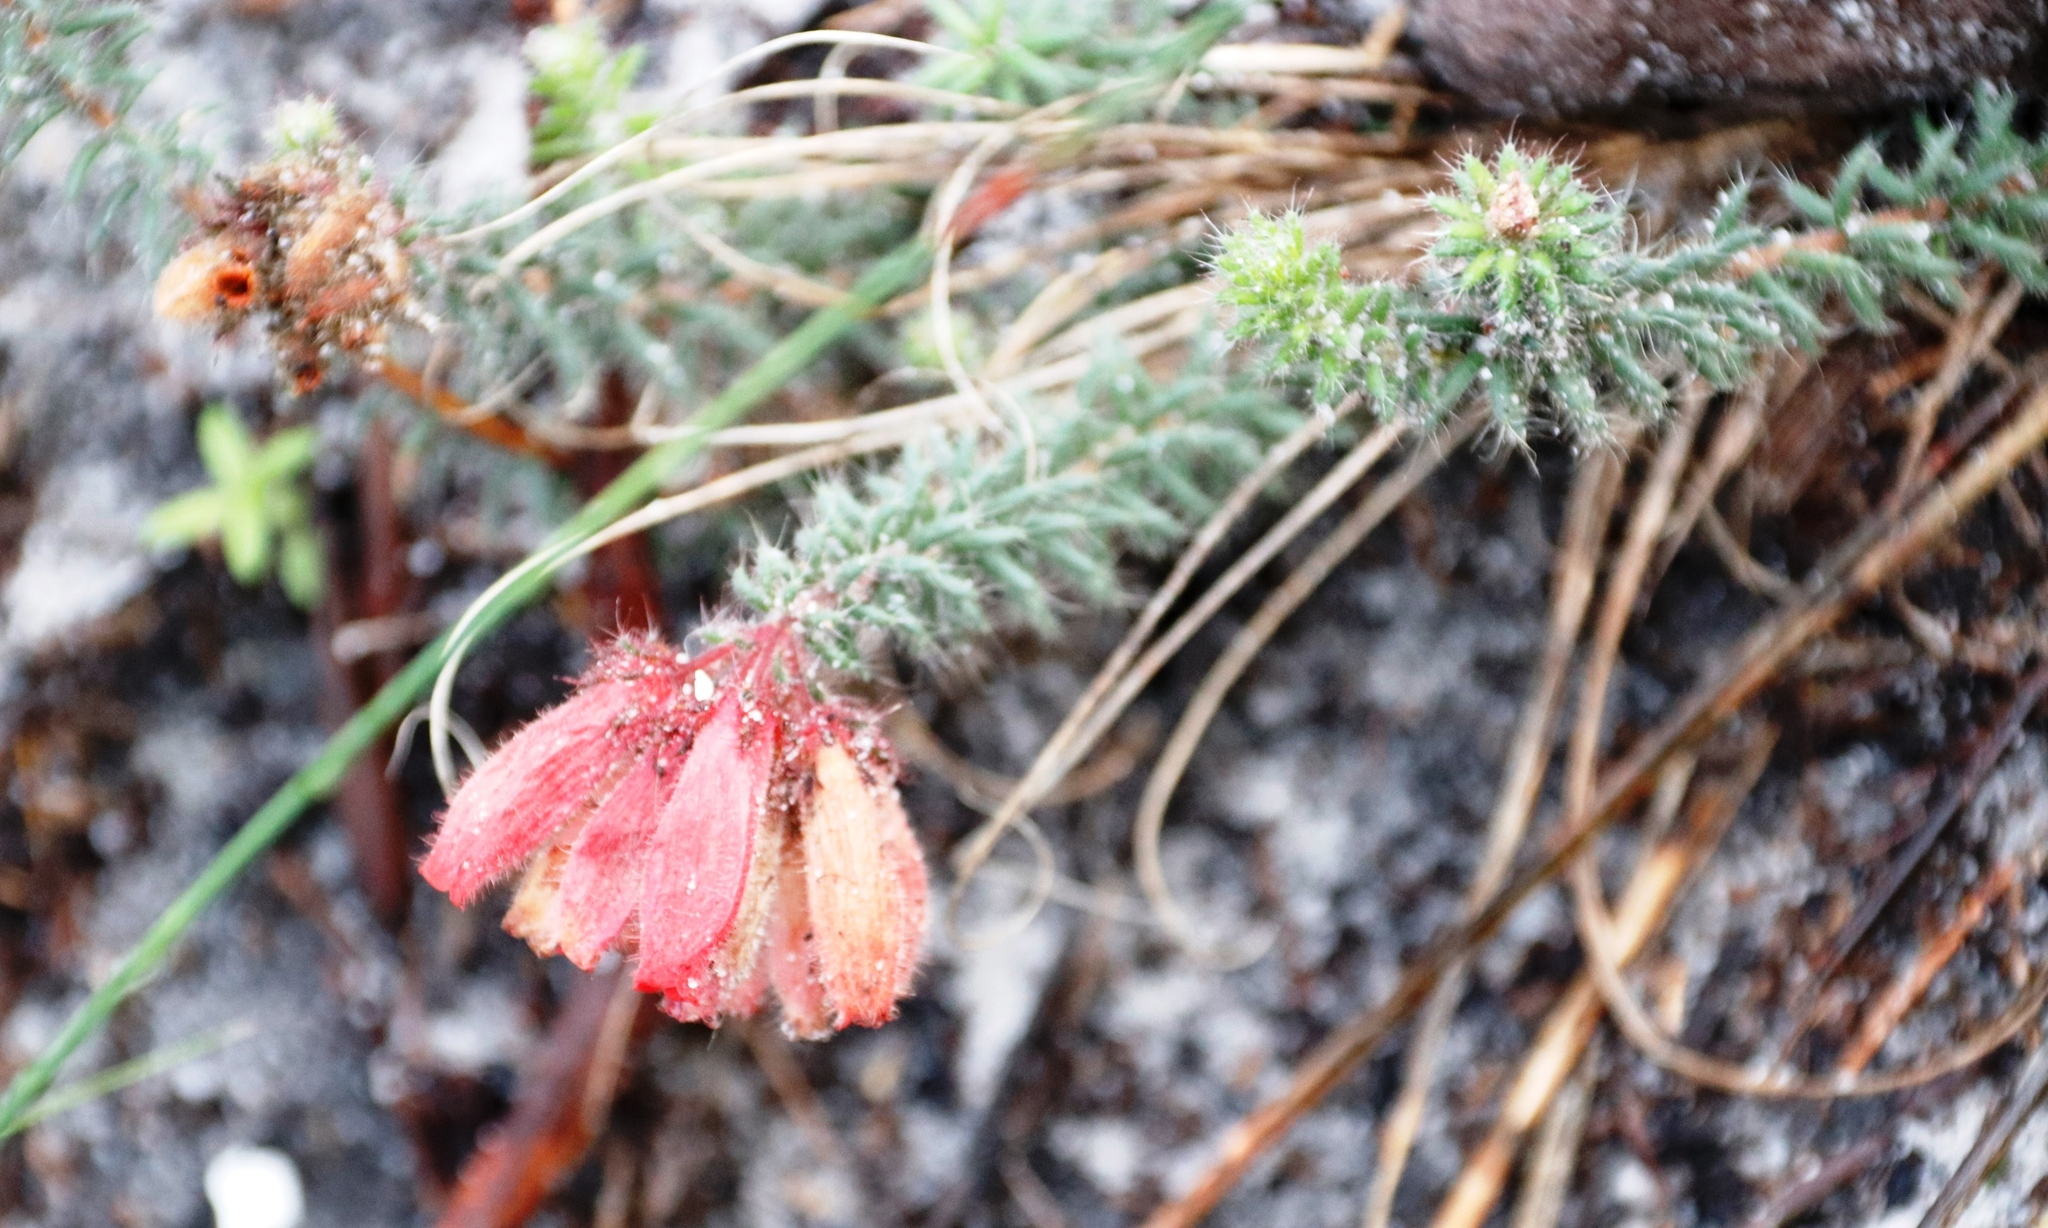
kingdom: Plantae
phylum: Tracheophyta
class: Magnoliopsida
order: Ericales
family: Ericaceae
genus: Erica
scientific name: Erica cerinthoides
